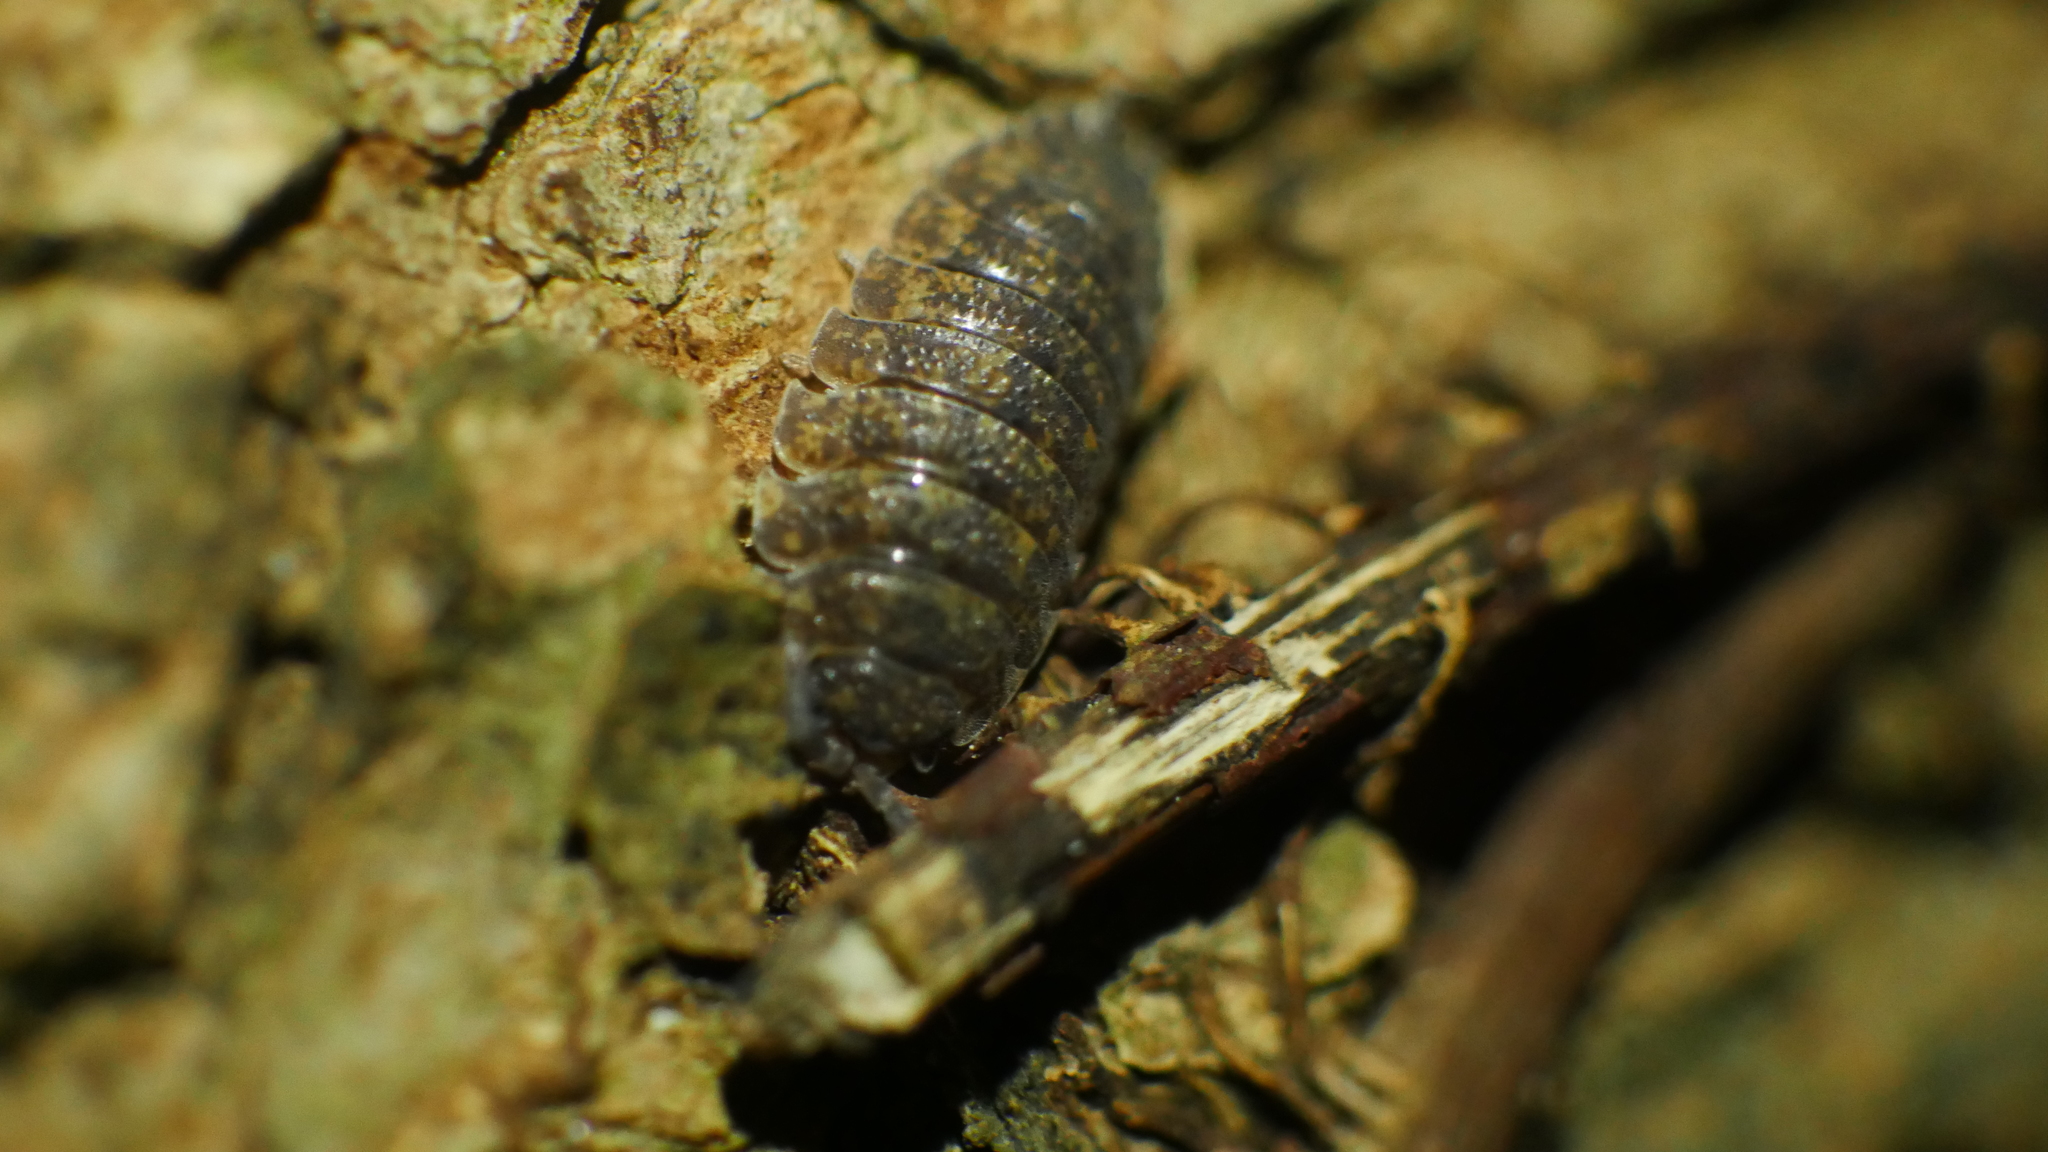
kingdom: Animalia
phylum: Arthropoda
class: Malacostraca
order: Isopoda
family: Porcellionidae
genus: Porcellio
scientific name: Porcellio scaber
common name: Common rough woodlouse
